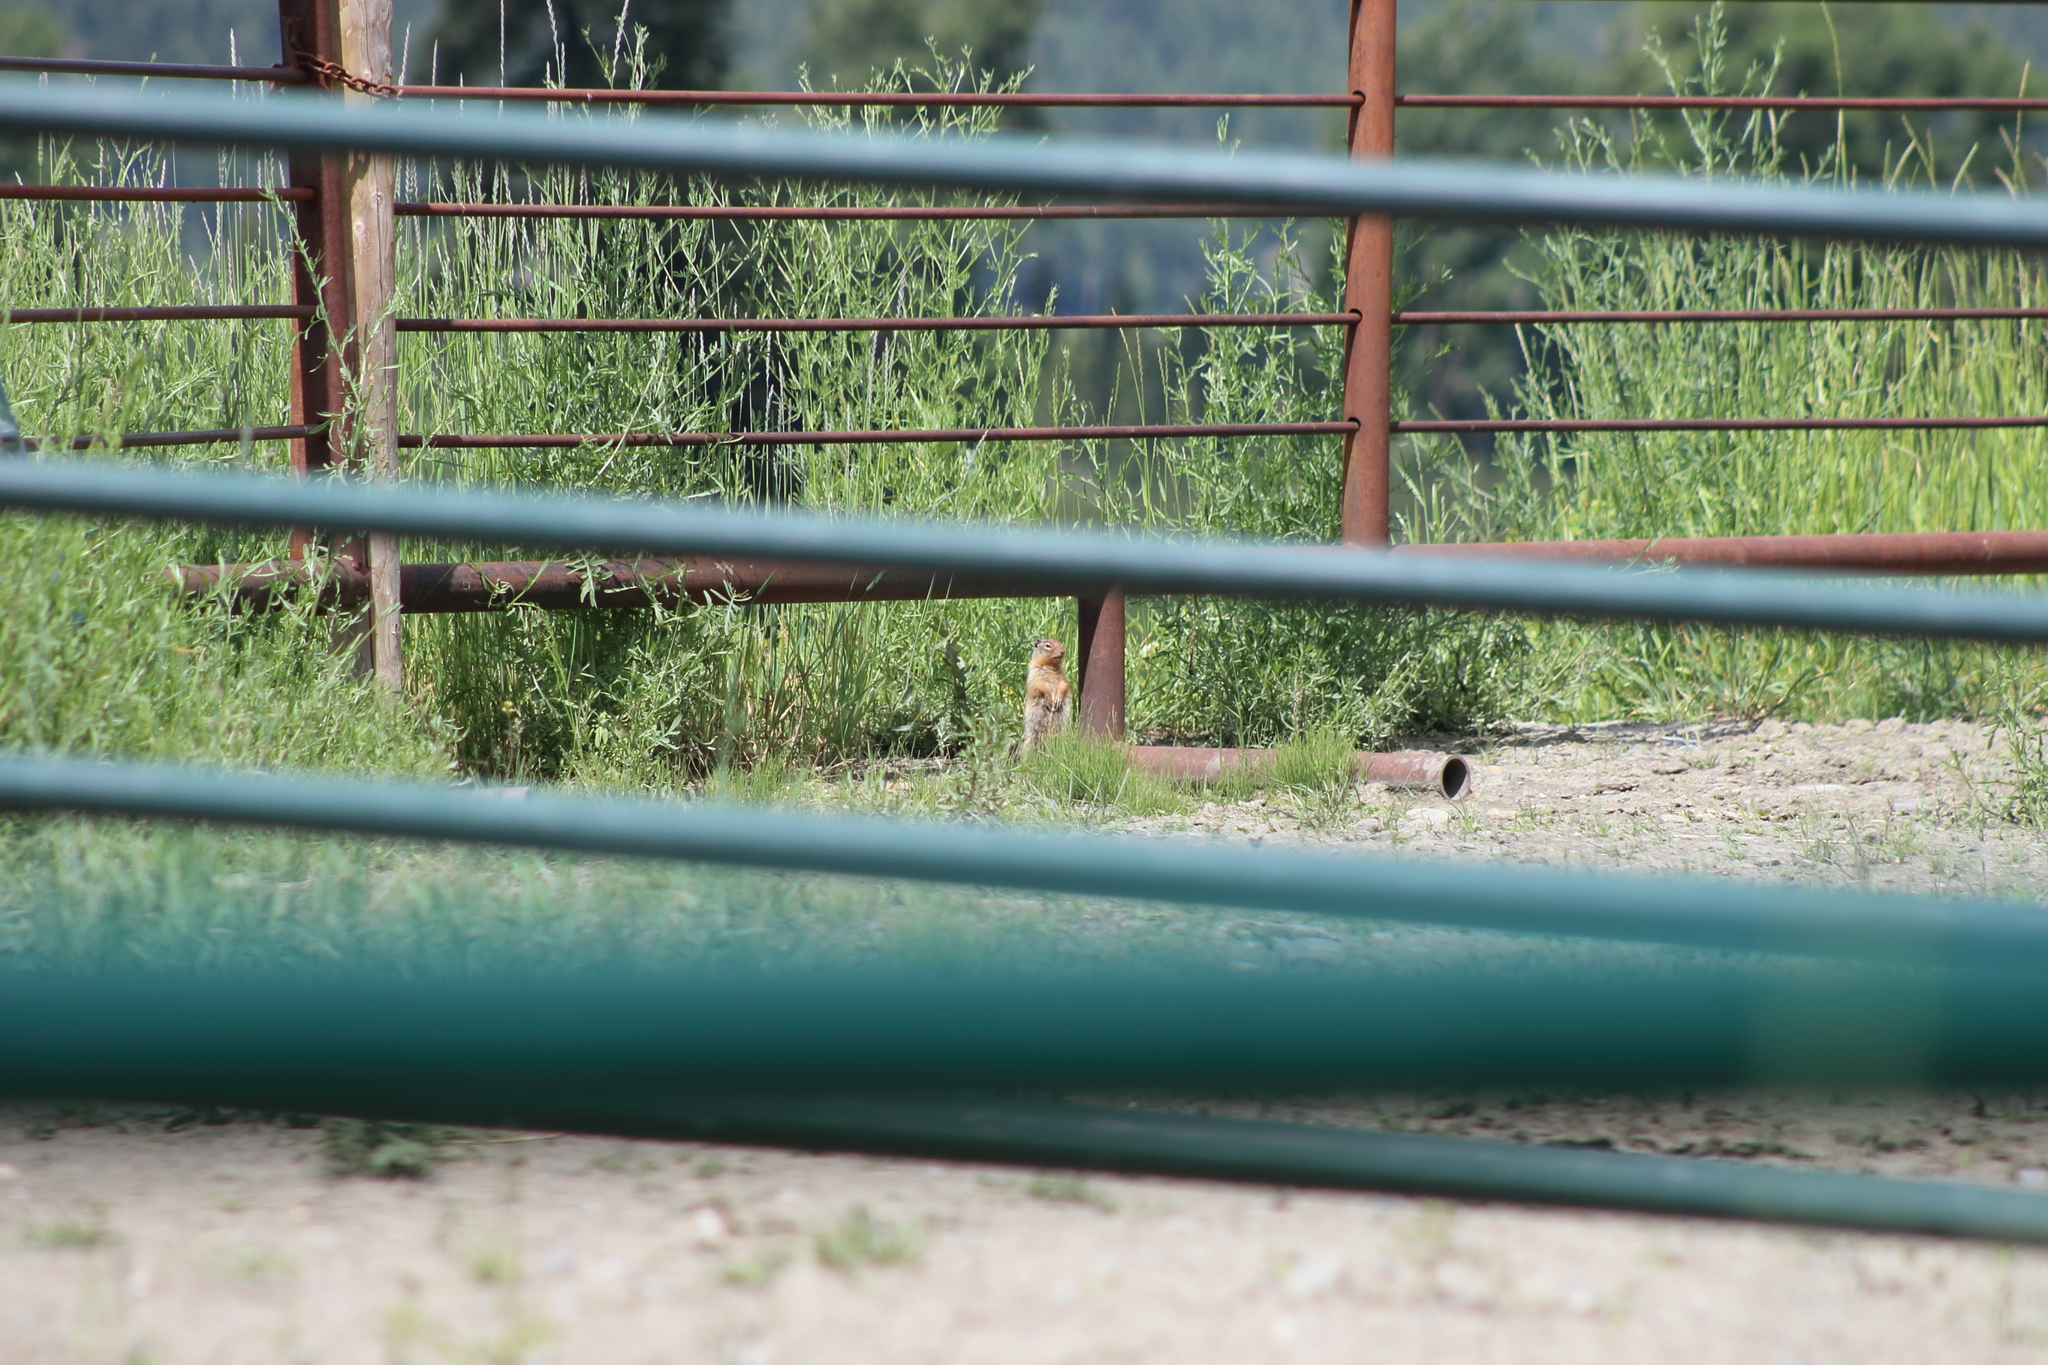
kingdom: Animalia
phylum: Chordata
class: Mammalia
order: Rodentia
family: Sciuridae
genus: Urocitellus
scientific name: Urocitellus columbianus
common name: Columbian ground squirrel
